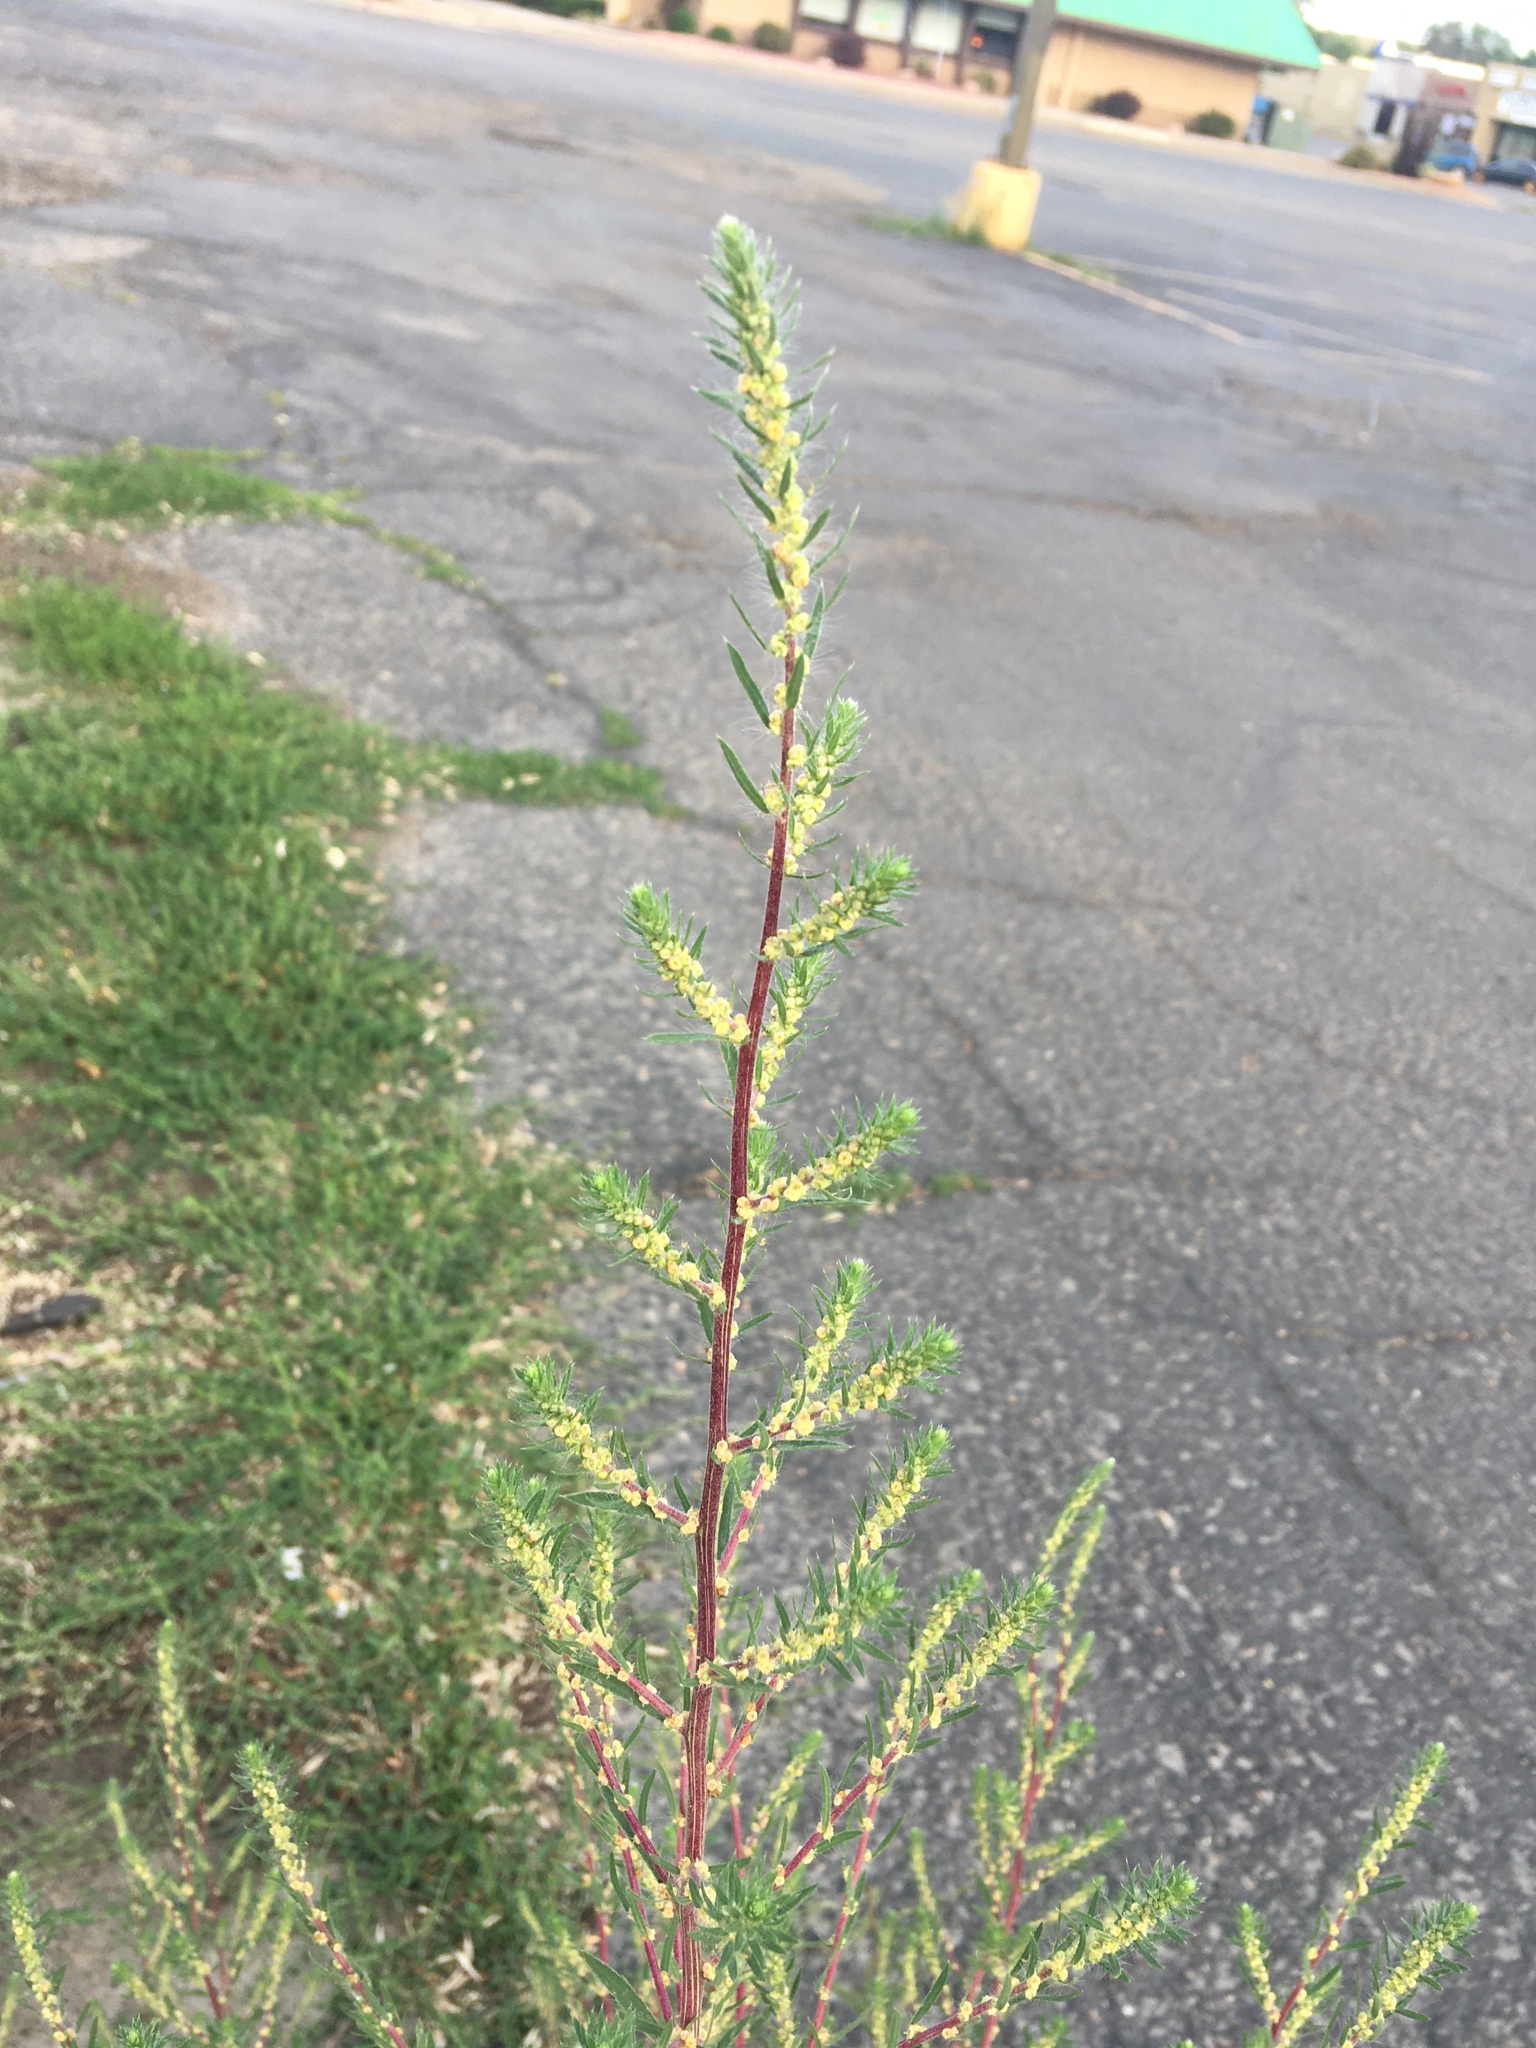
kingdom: Plantae
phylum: Tracheophyta
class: Magnoliopsida
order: Caryophyllales
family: Amaranthaceae
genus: Bassia
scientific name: Bassia scoparia
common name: Belvedere
